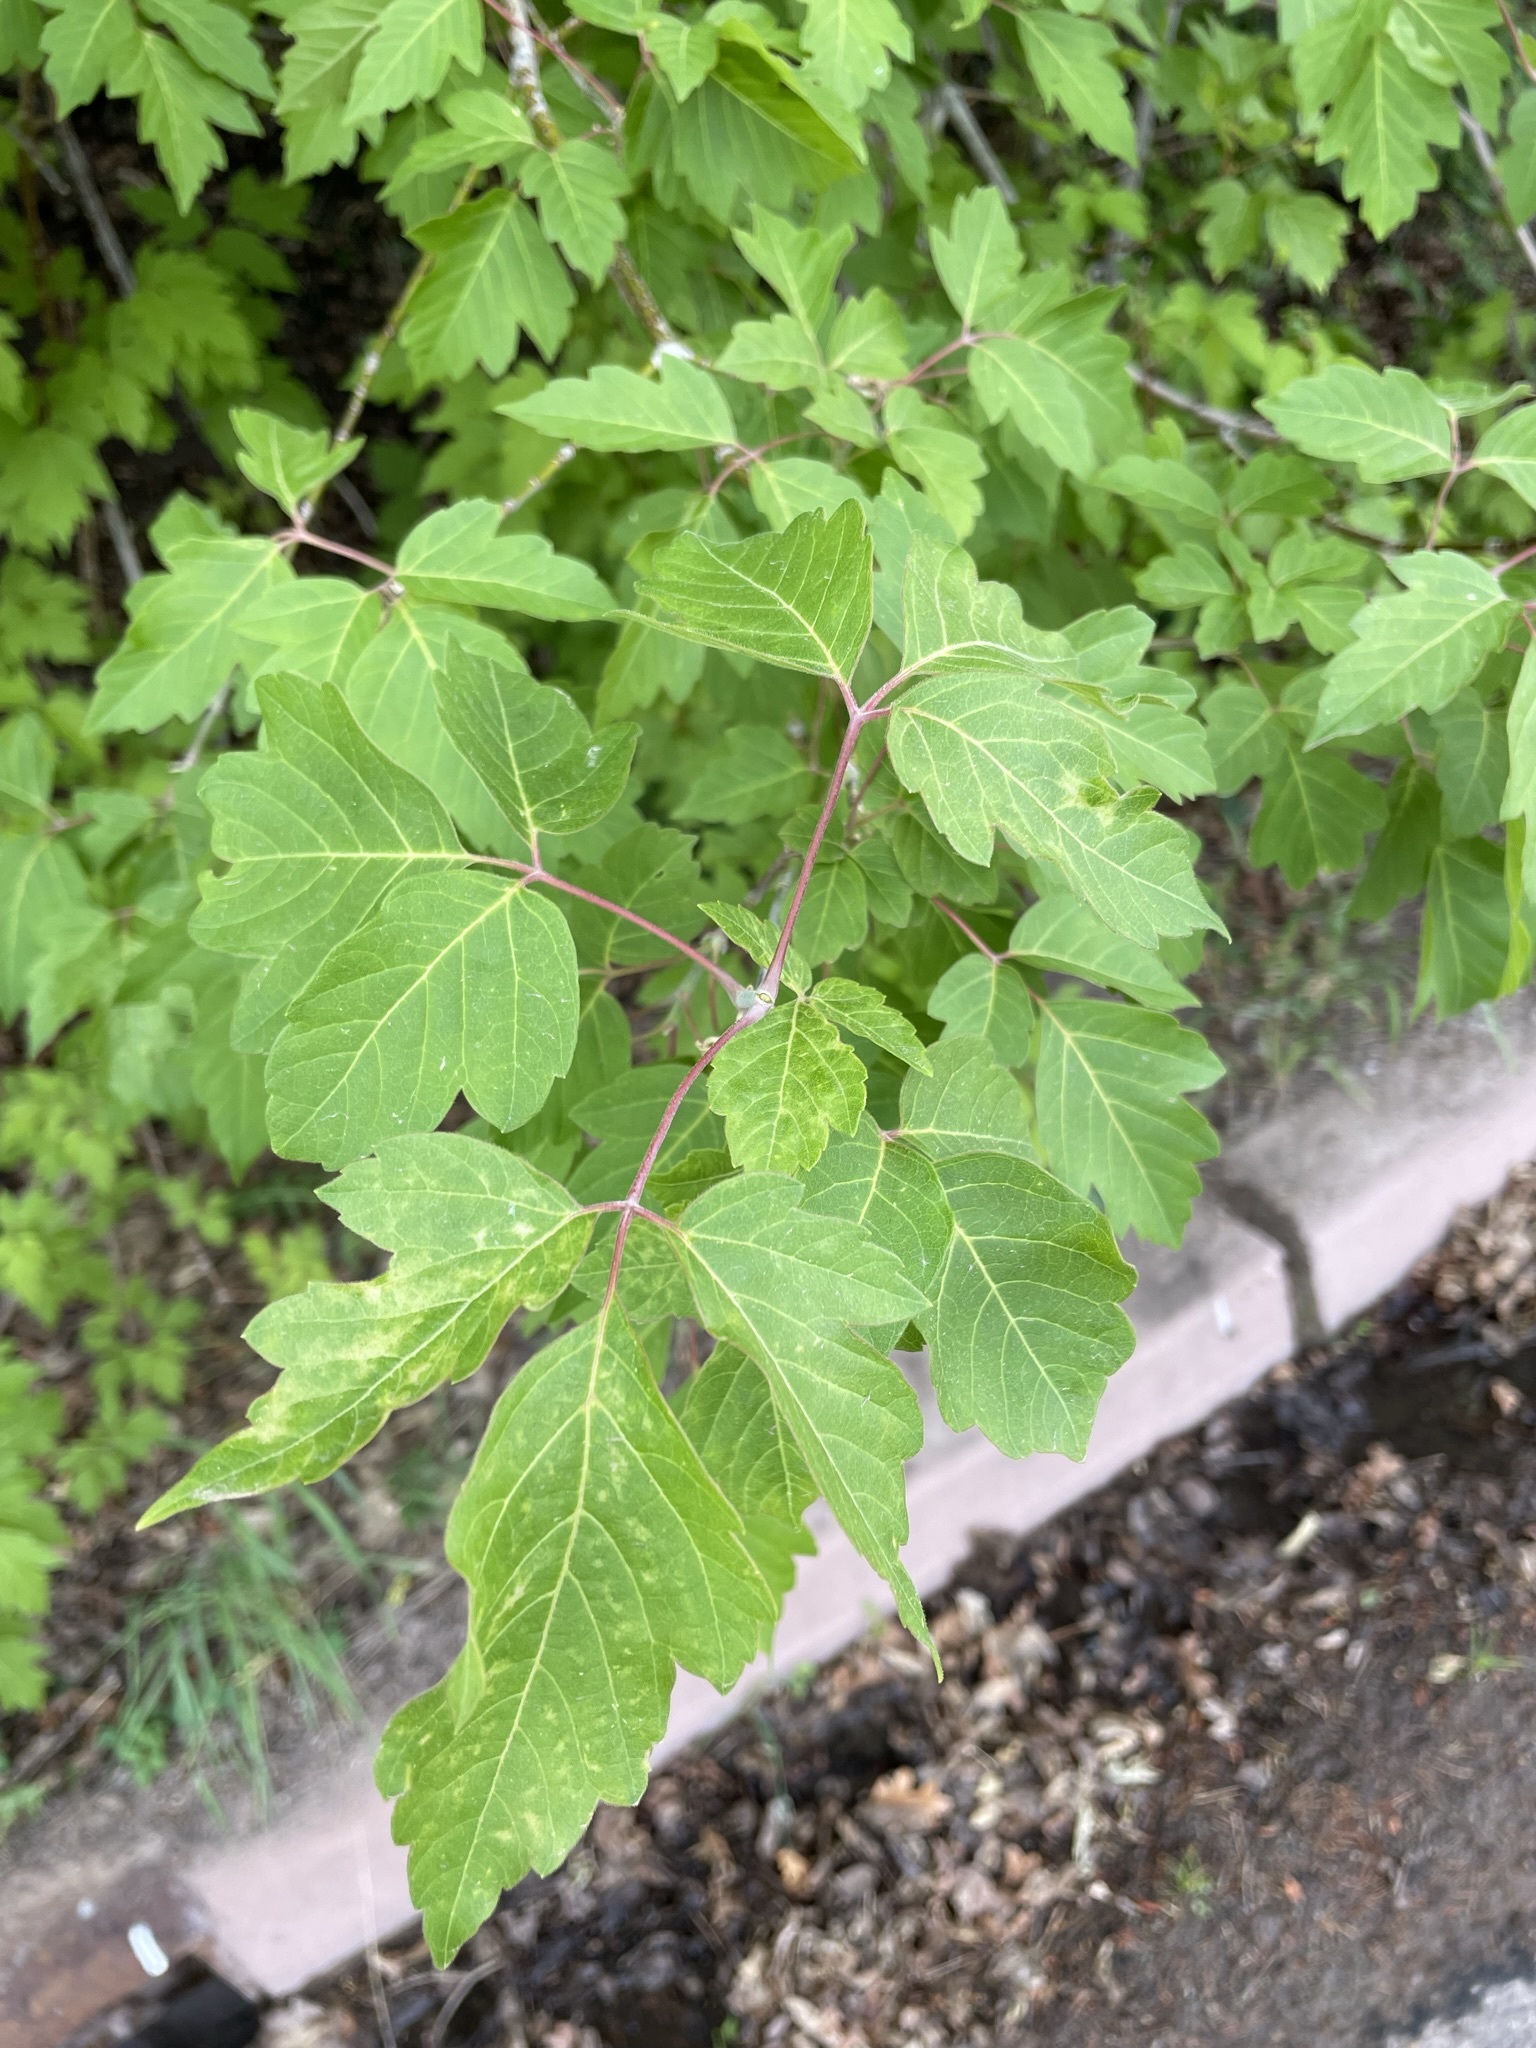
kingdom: Plantae
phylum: Tracheophyta
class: Magnoliopsida
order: Sapindales
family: Sapindaceae
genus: Acer
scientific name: Acer negundo
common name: Ashleaf maple
